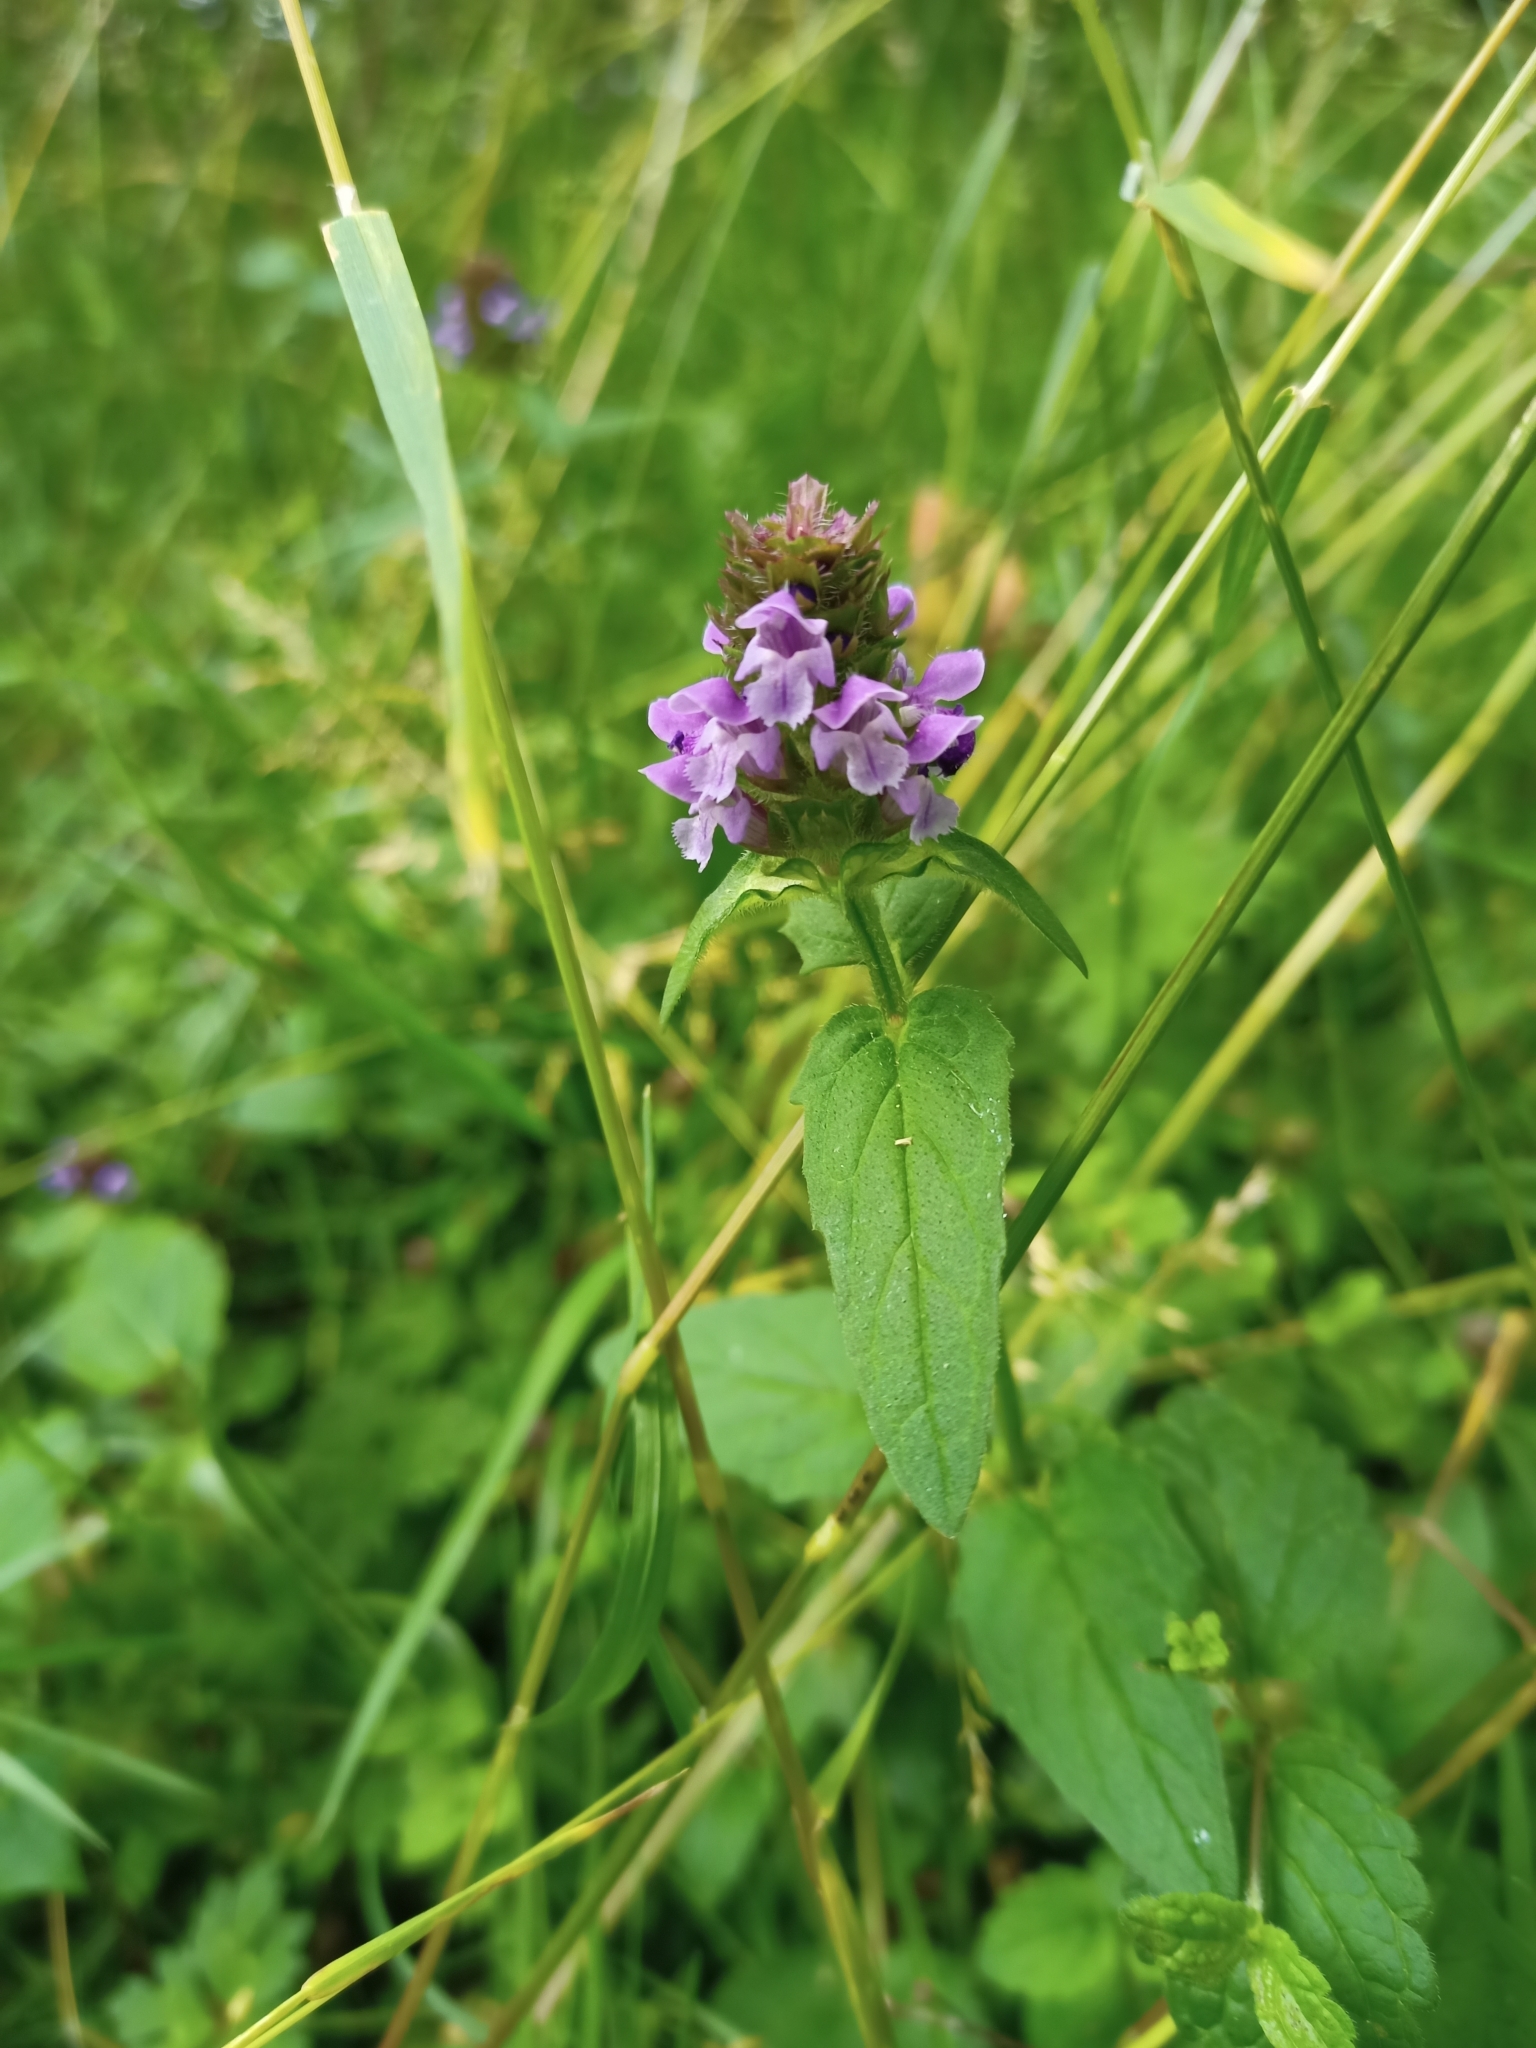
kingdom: Plantae
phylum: Tracheophyta
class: Magnoliopsida
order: Lamiales
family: Lamiaceae
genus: Prunella
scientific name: Prunella vulgaris
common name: Heal-all
